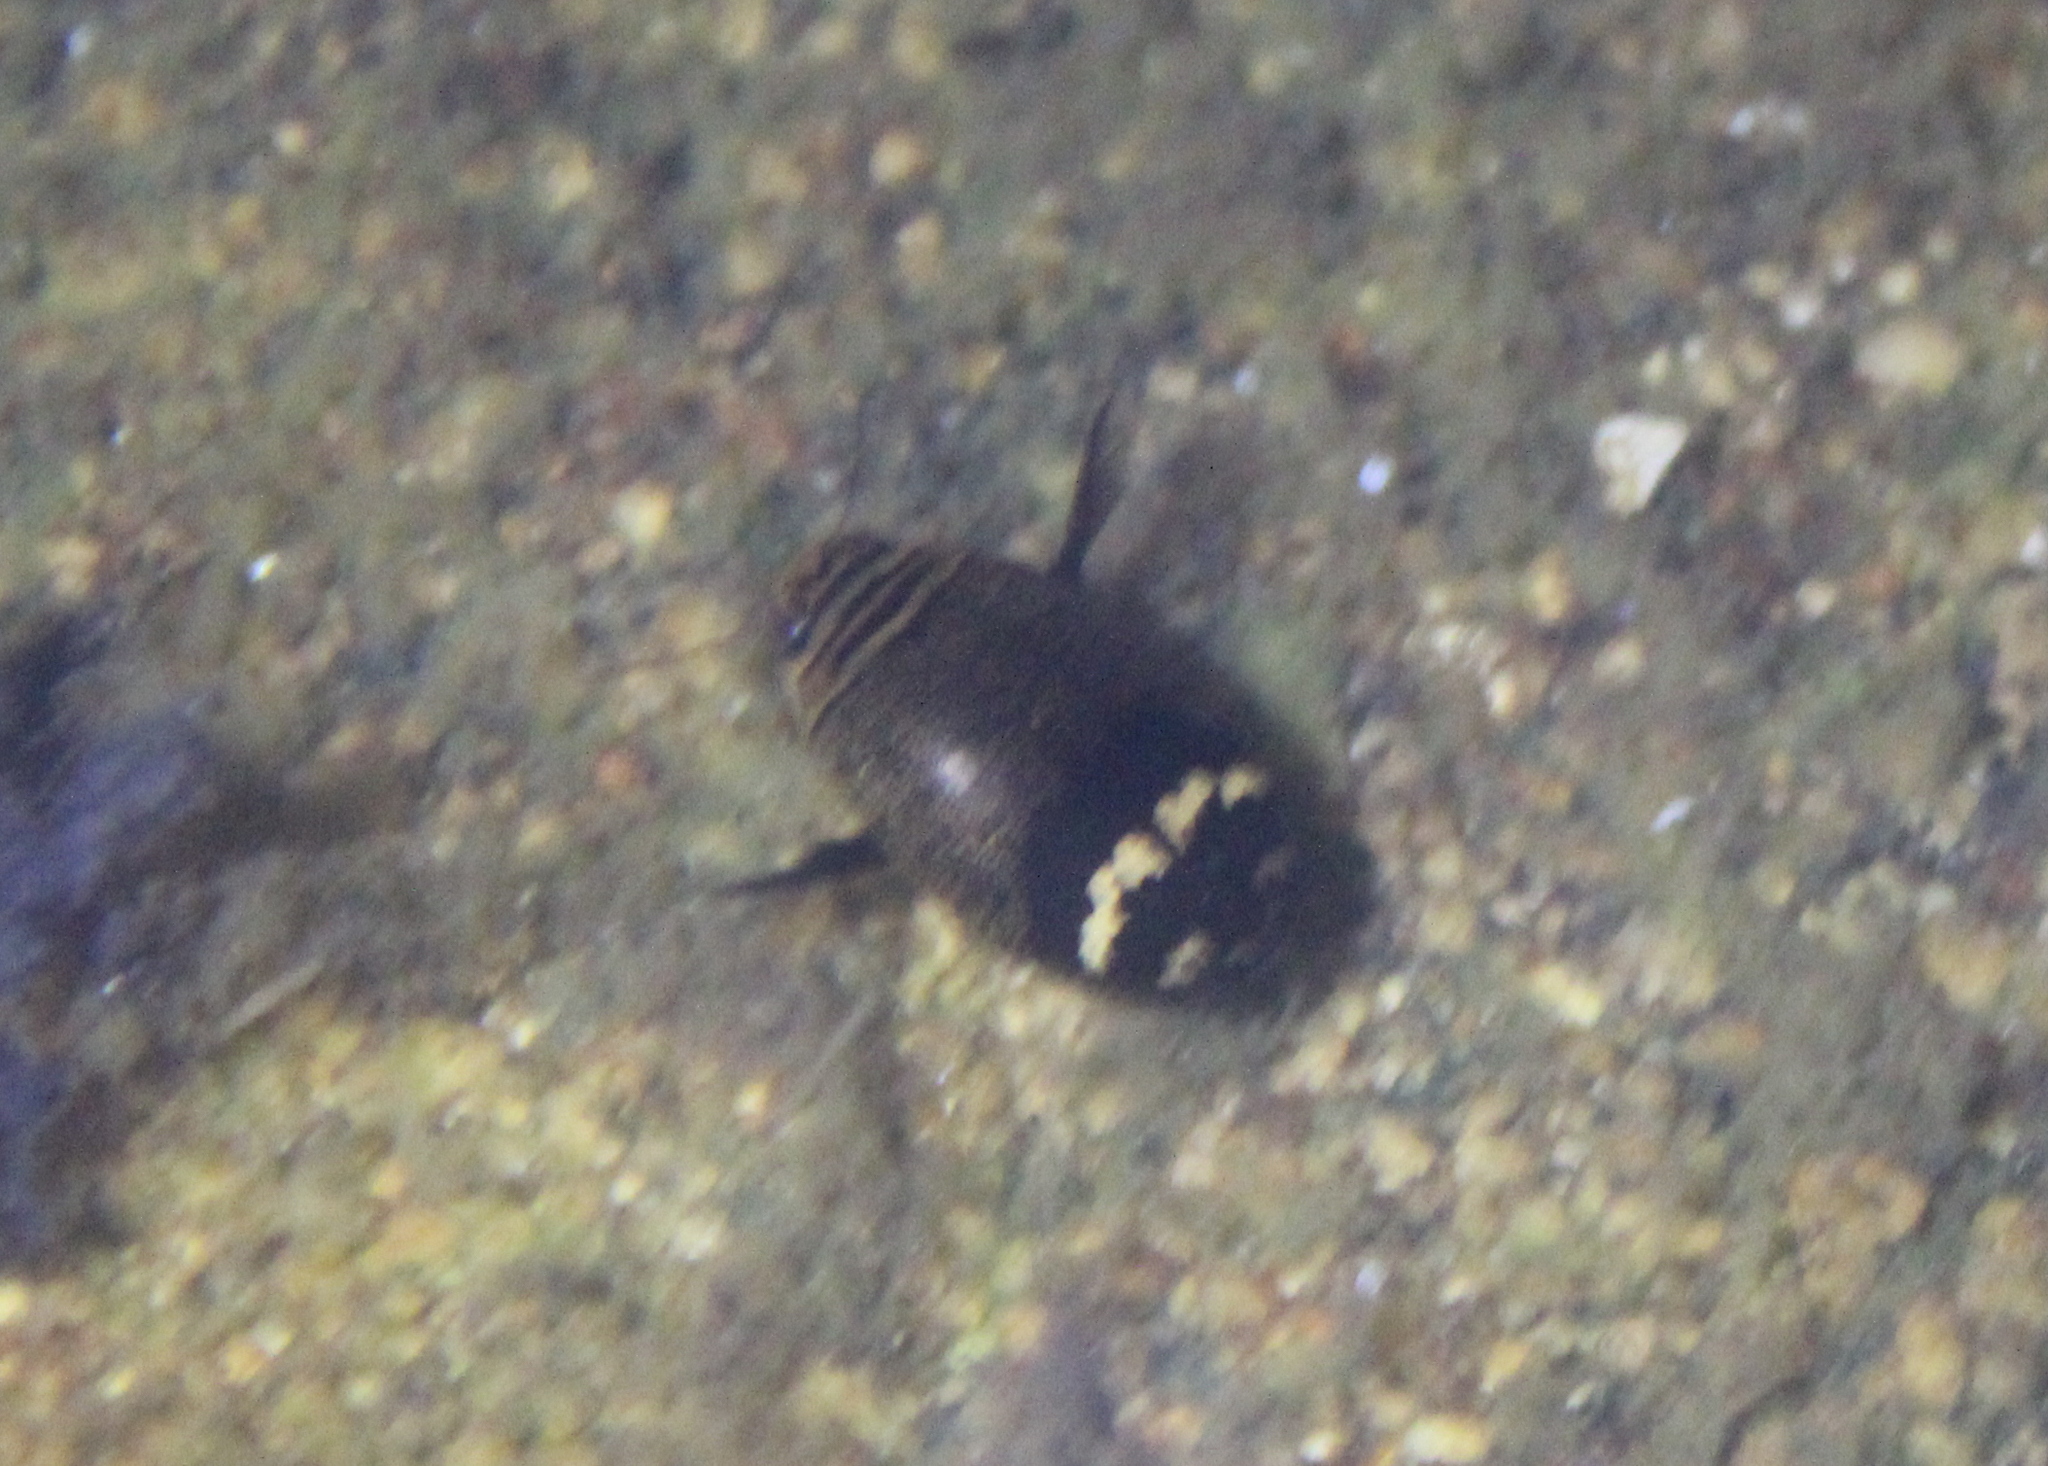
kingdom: Animalia
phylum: Arthropoda
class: Insecta
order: Coleoptera
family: Dytiscidae
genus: Acilius
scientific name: Acilius mediatus
